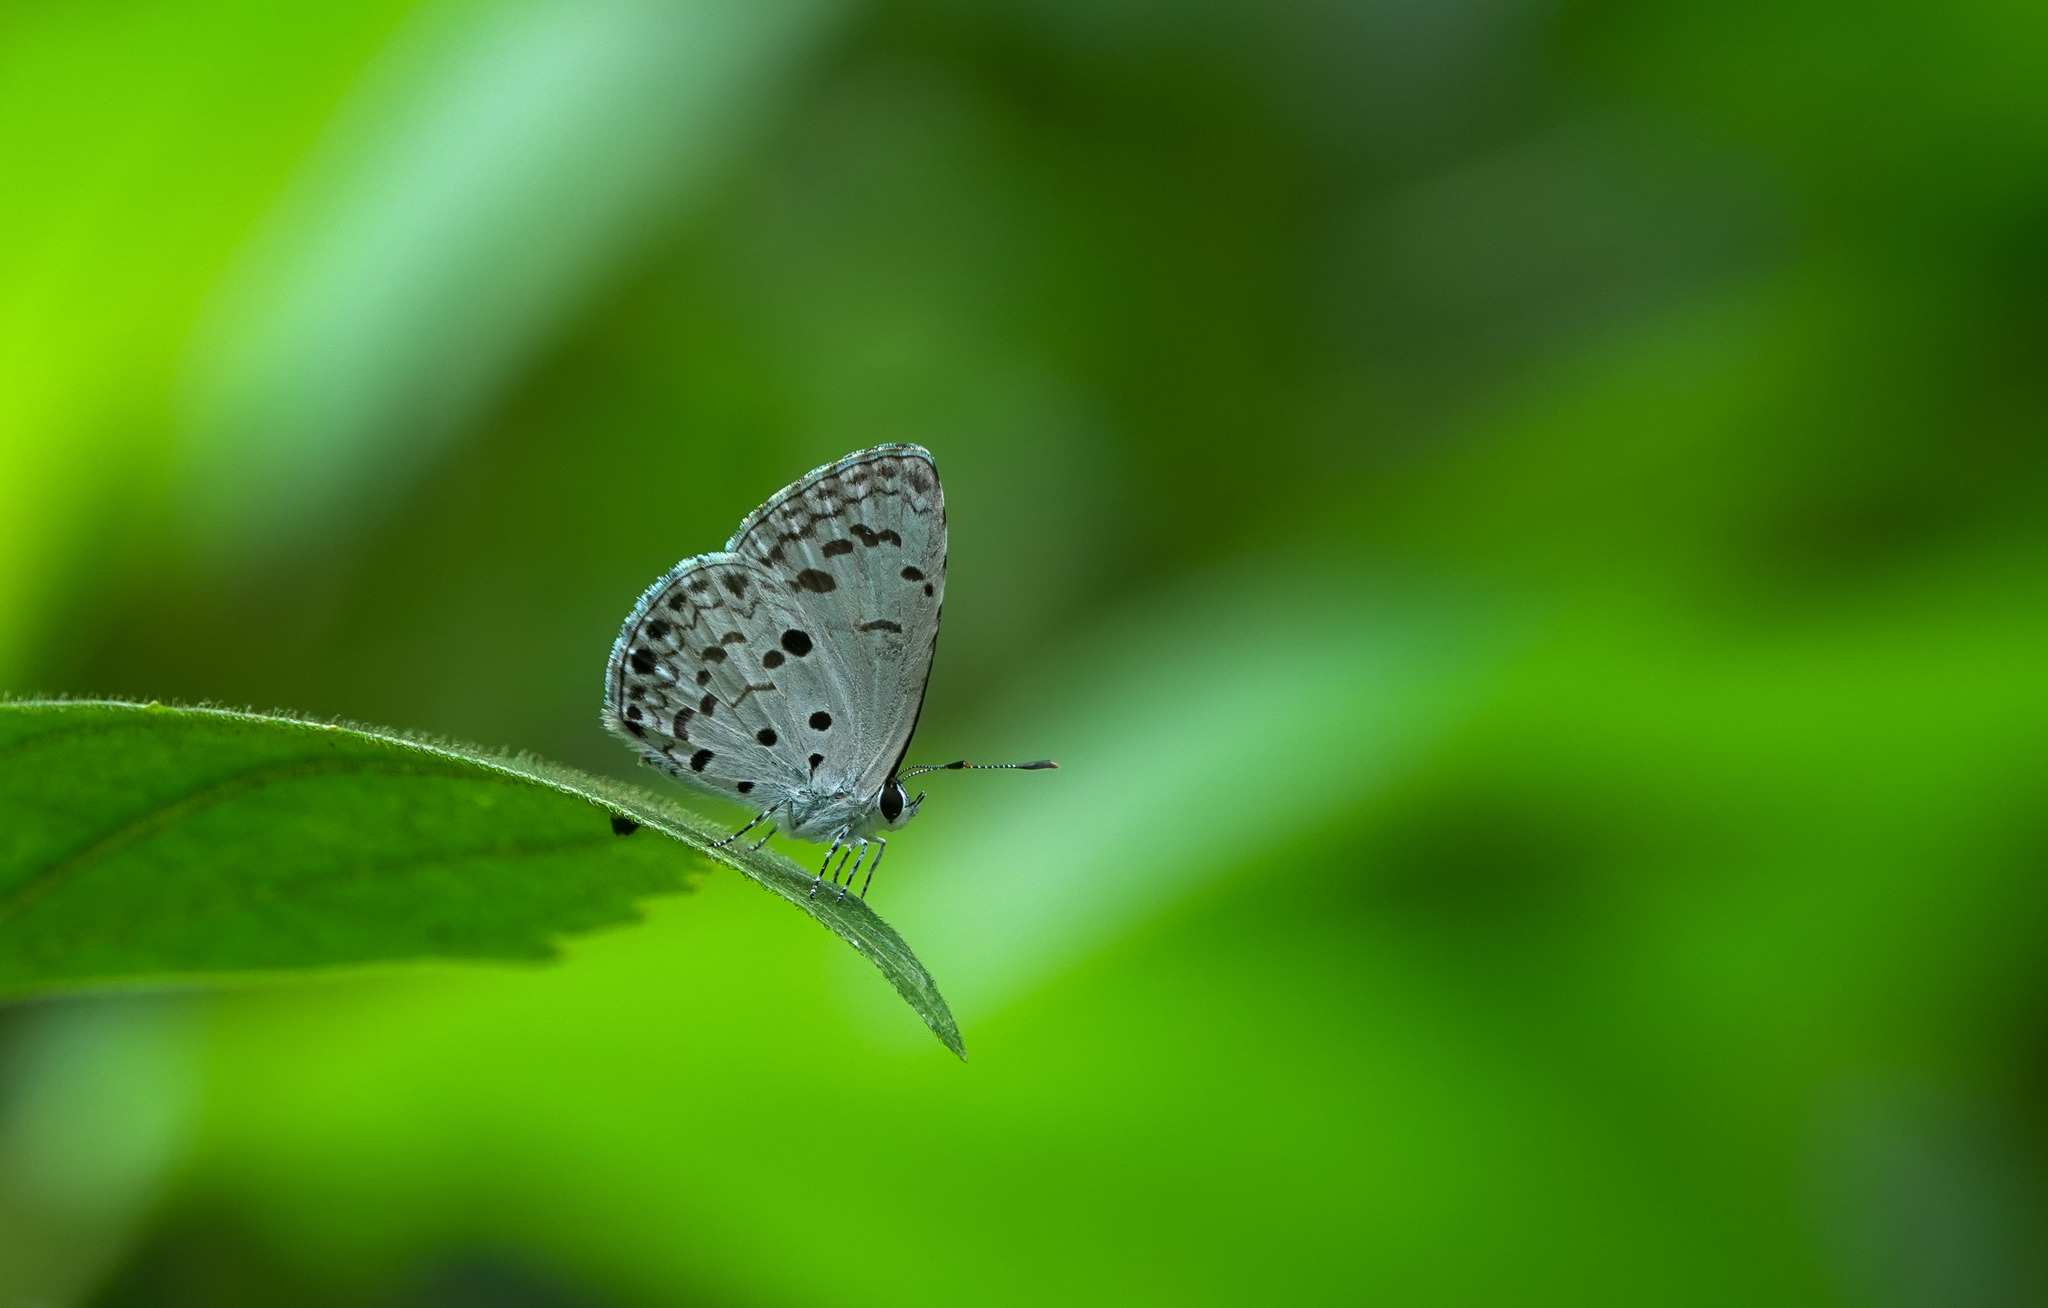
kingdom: Animalia
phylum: Arthropoda
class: Insecta
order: Lepidoptera
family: Lycaenidae
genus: Acytolepis
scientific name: Acytolepis puspa
